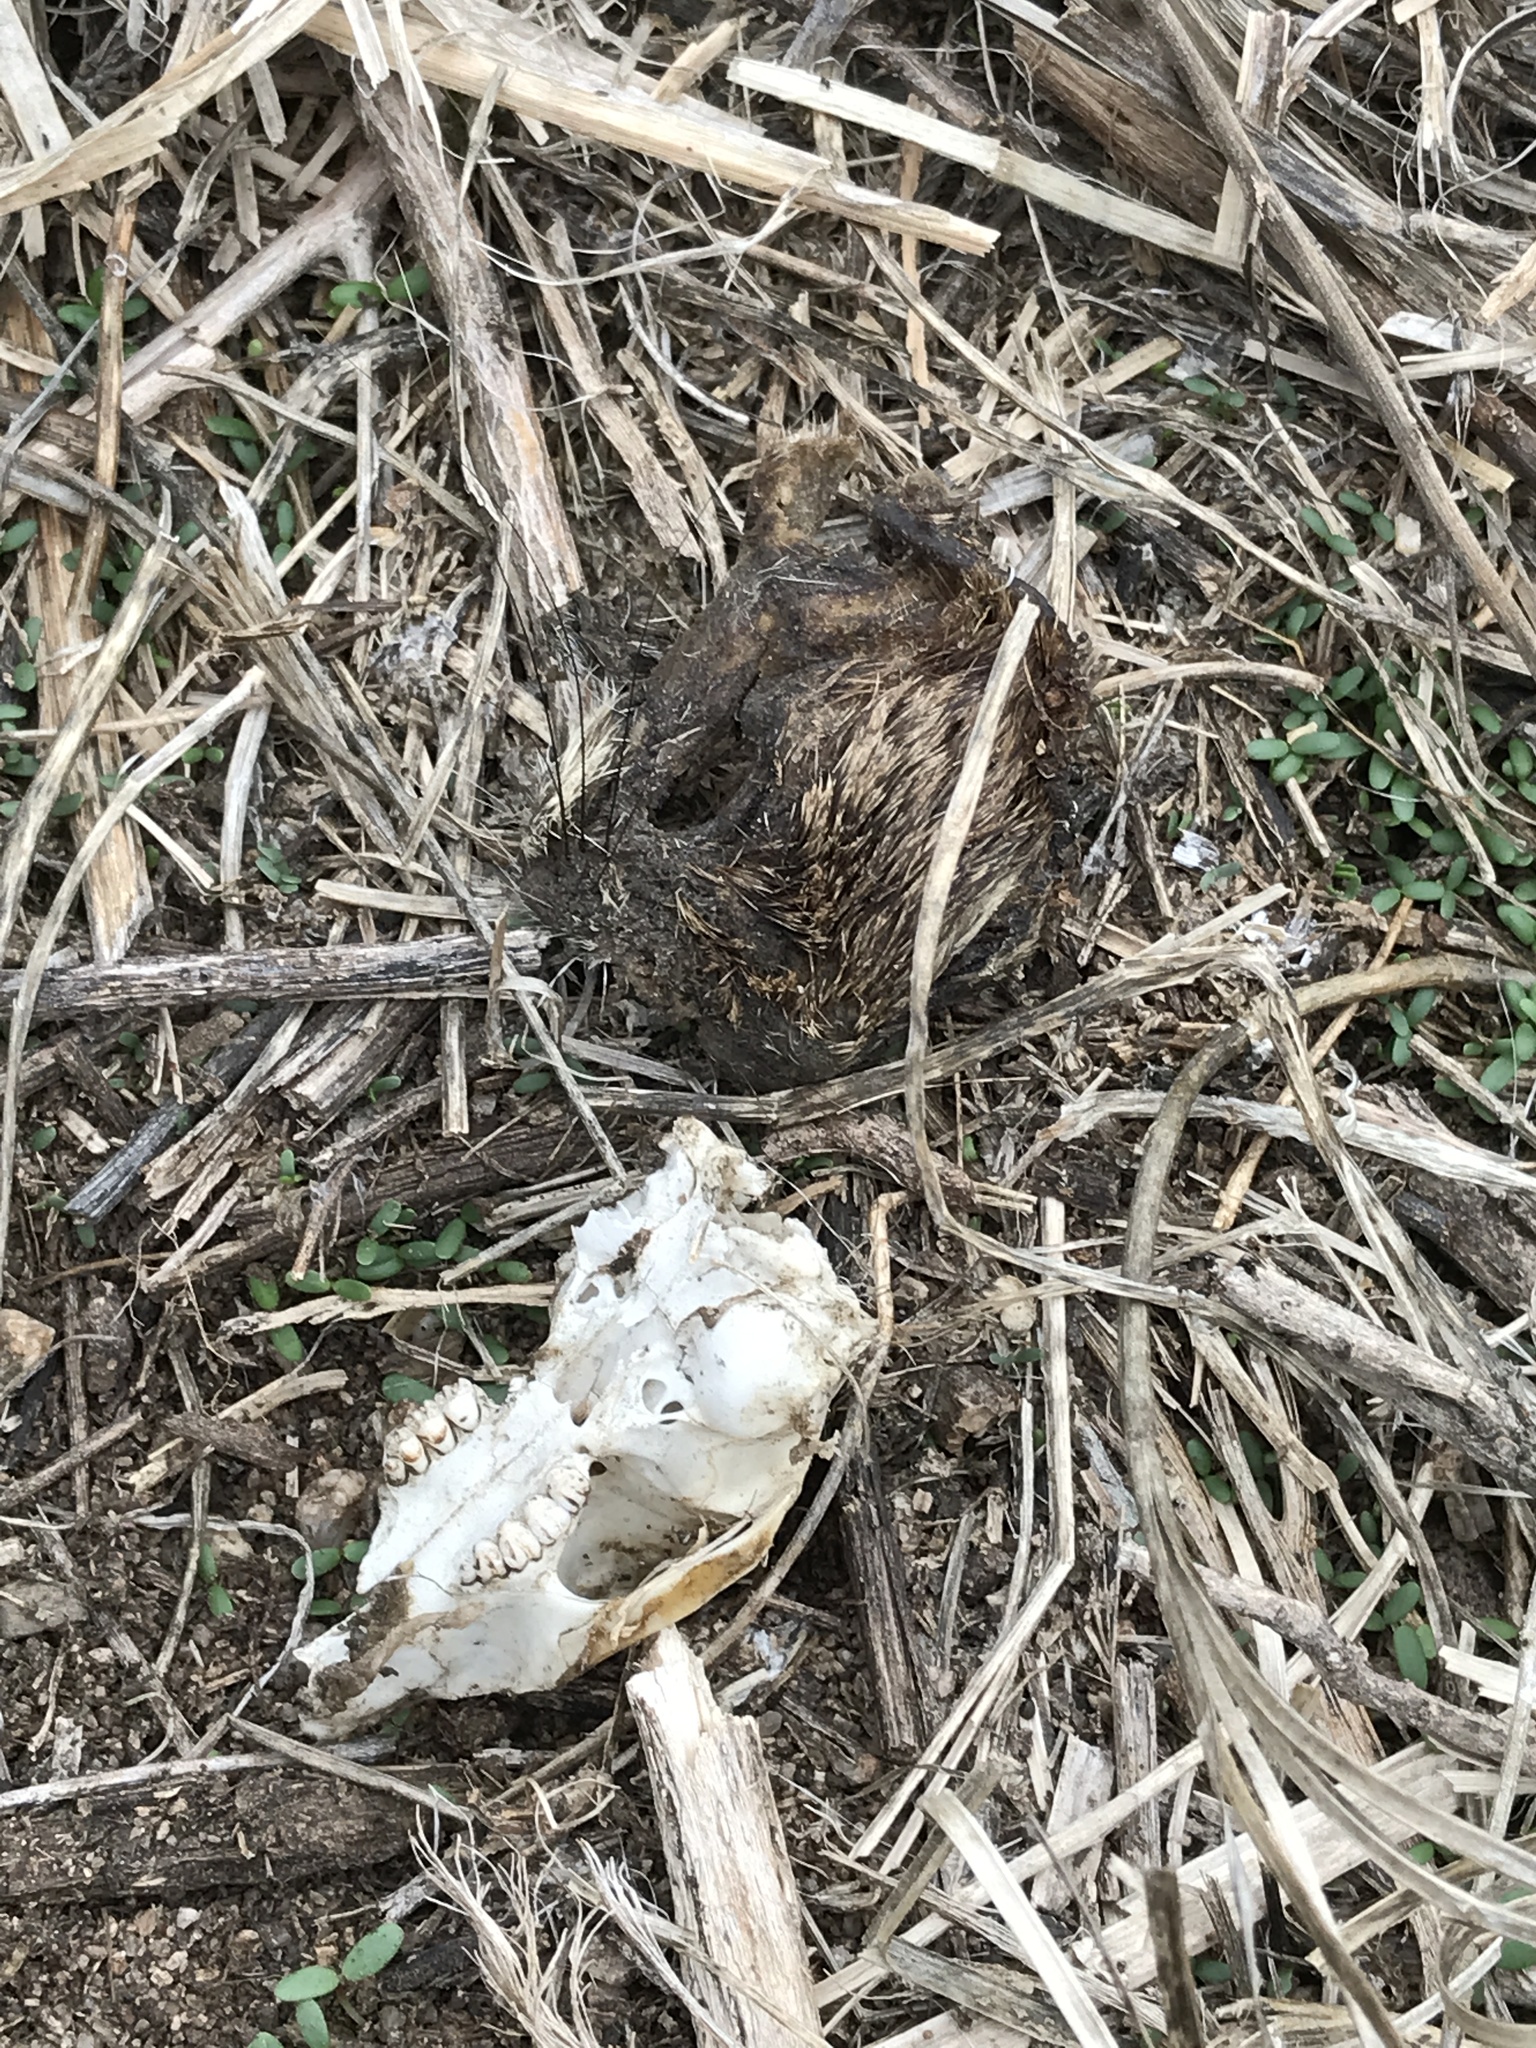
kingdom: Animalia
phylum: Chordata
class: Mammalia
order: Rodentia
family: Sciuridae
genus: Otospermophilus
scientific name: Otospermophilus beecheyi
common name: California ground squirrel
